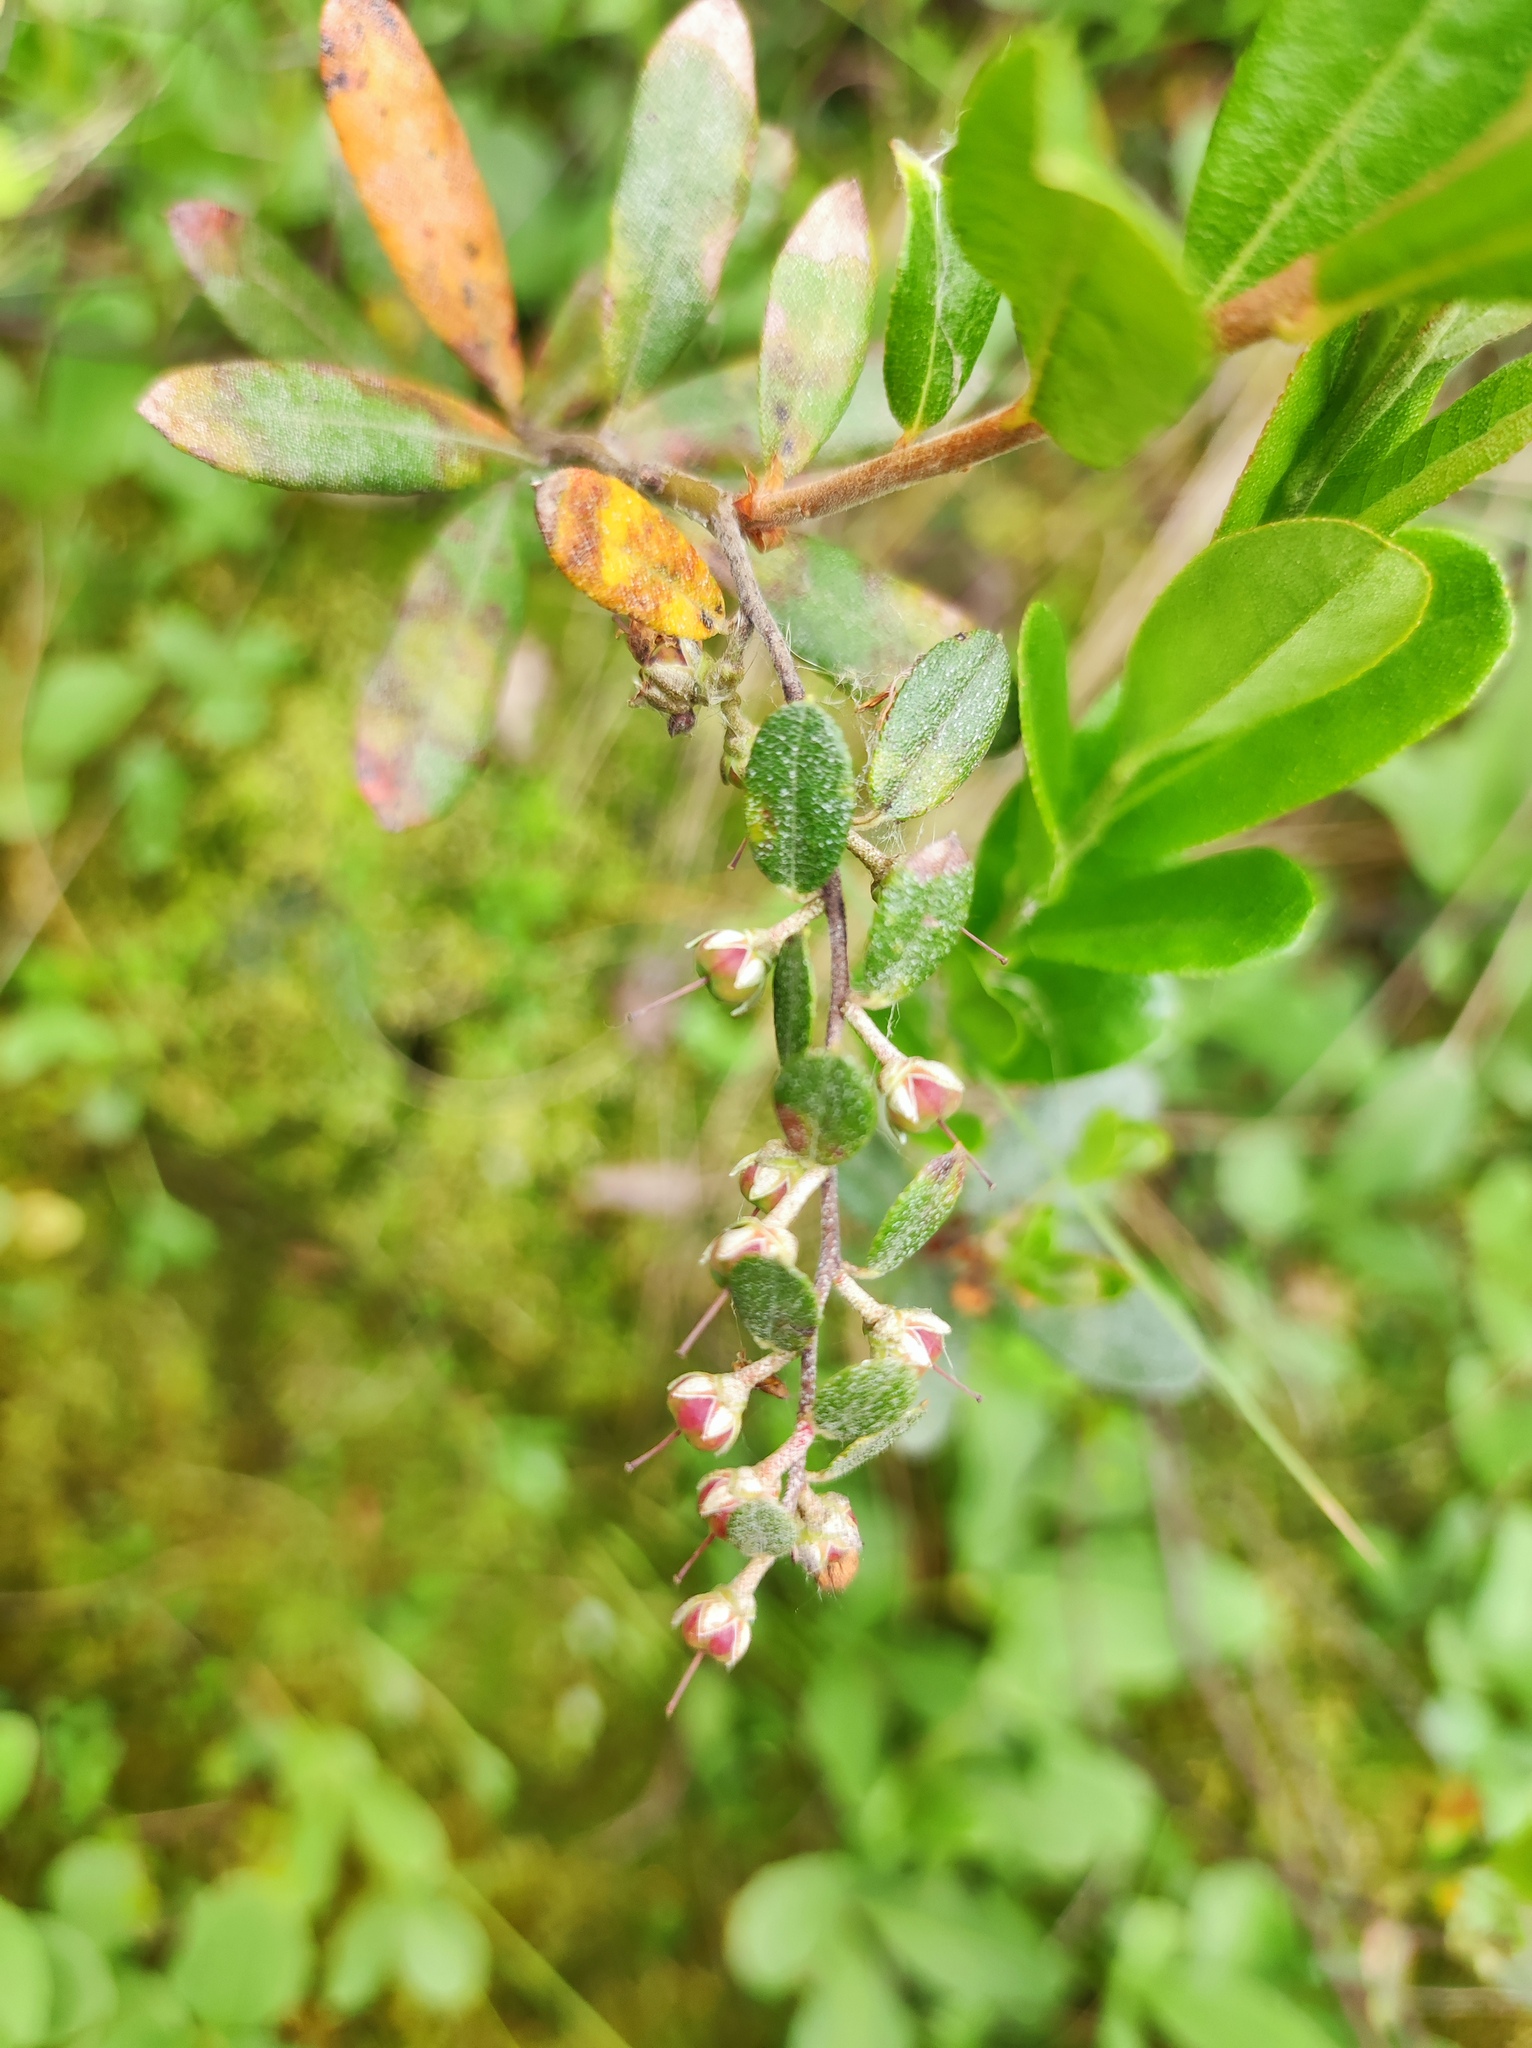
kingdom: Plantae
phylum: Tracheophyta
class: Magnoliopsida
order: Ericales
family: Ericaceae
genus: Chamaedaphne
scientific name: Chamaedaphne calyculata
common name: Leatherleaf
